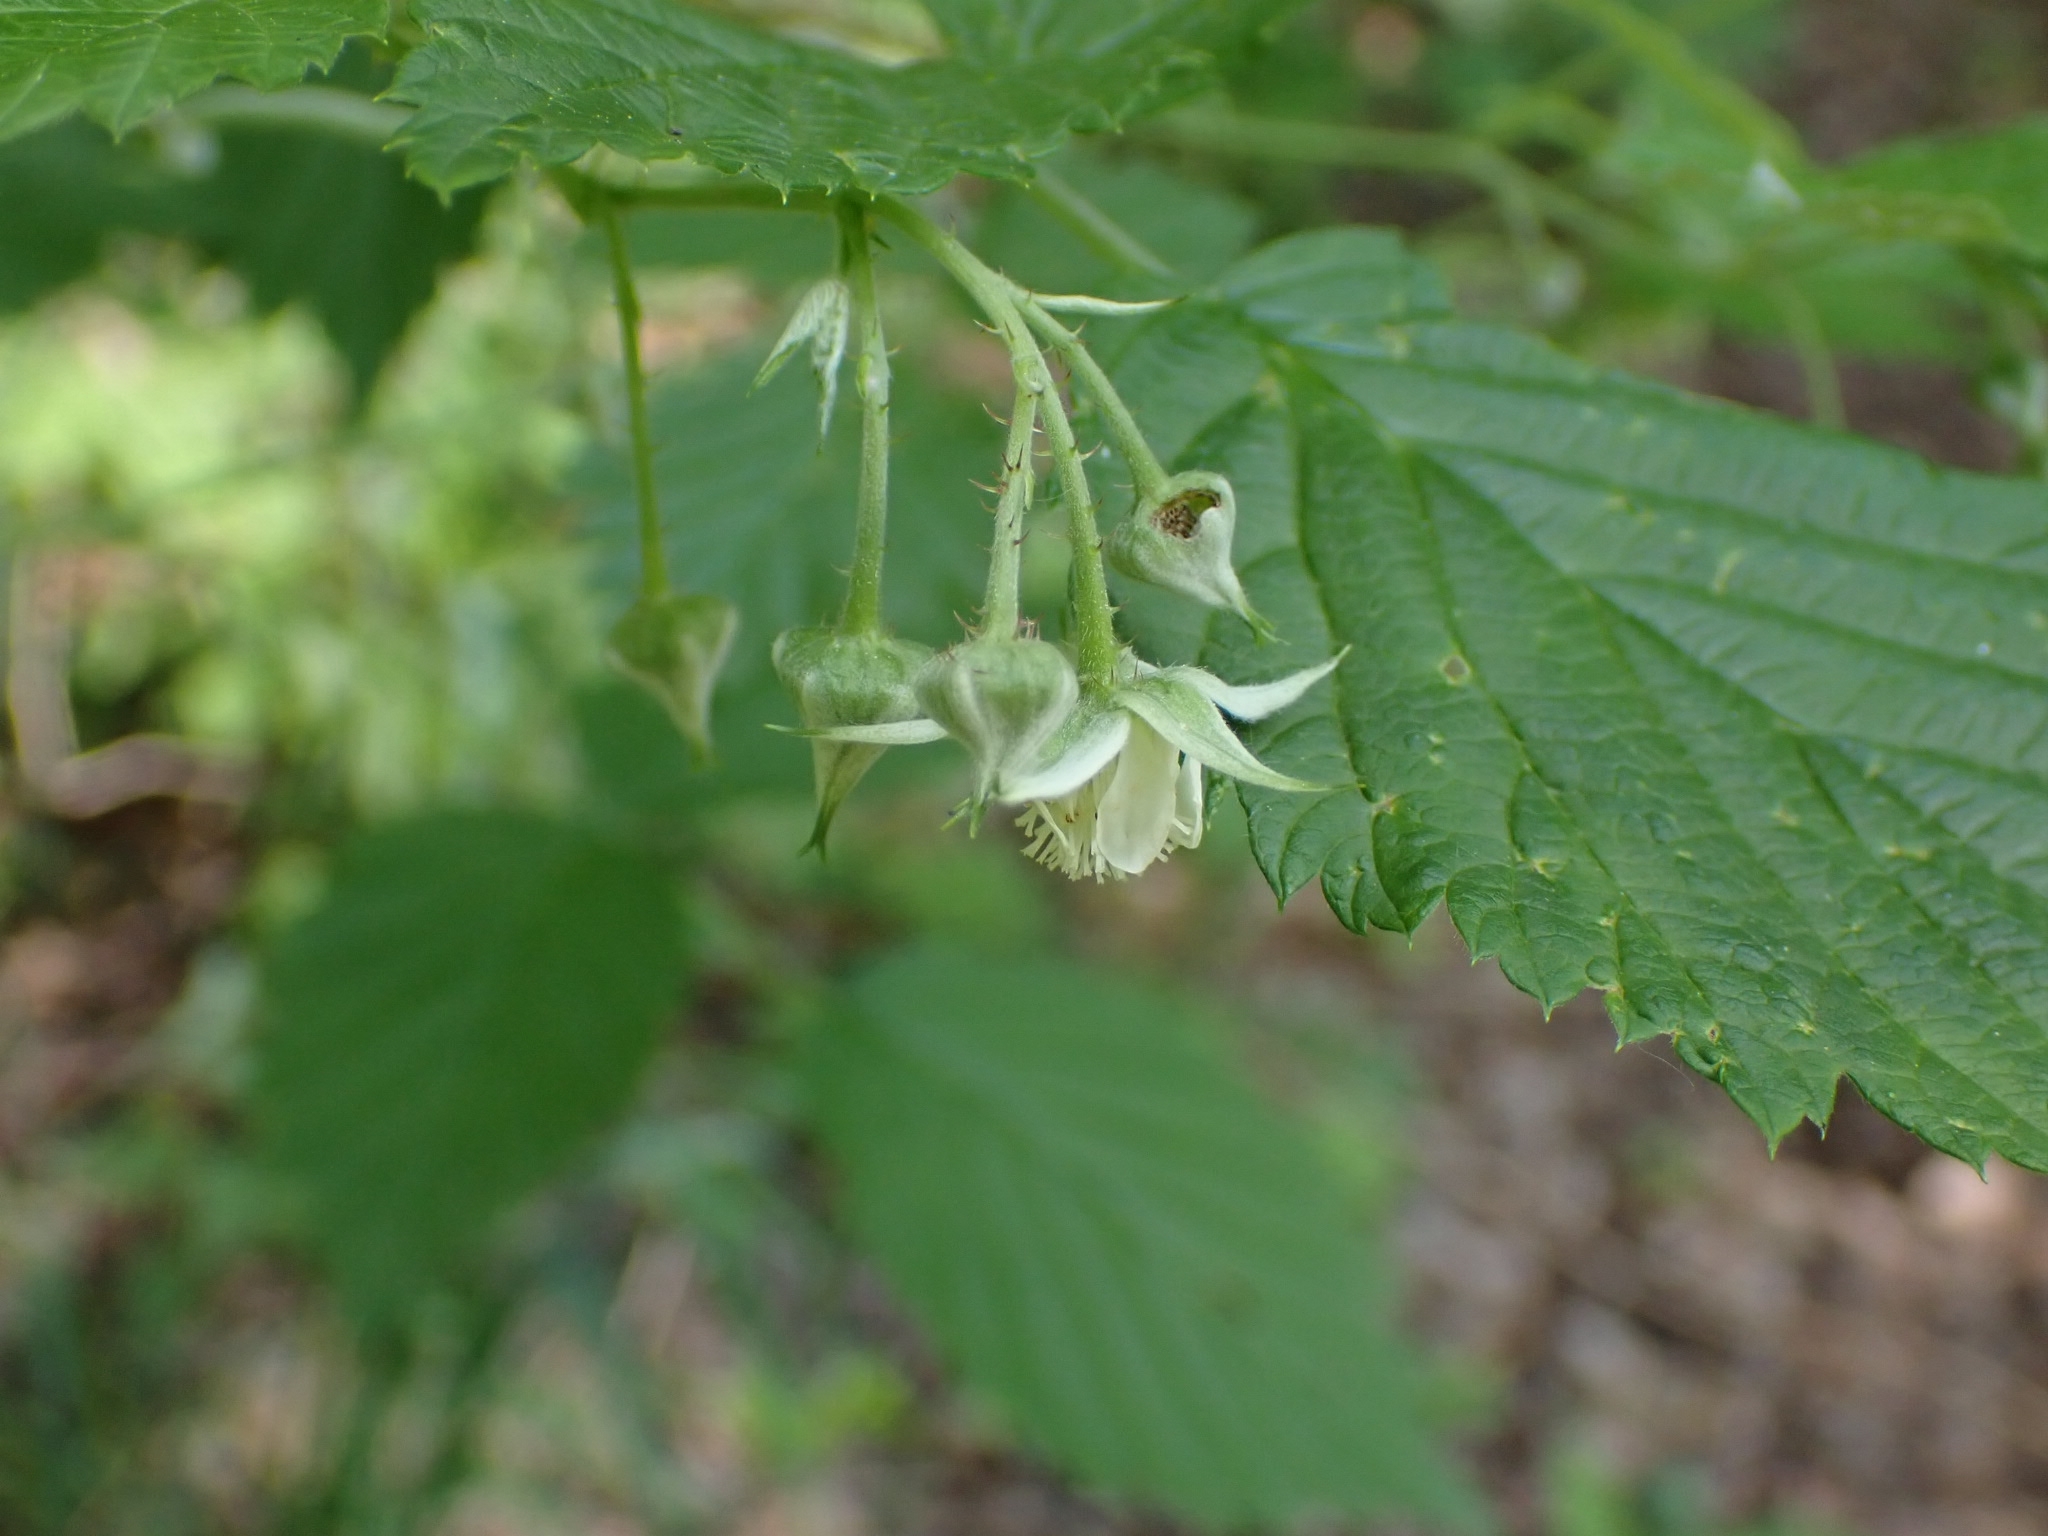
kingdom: Plantae
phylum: Tracheophyta
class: Magnoliopsida
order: Rosales
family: Rosaceae
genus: Rubus
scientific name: Rubus idaeus
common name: Raspberry
